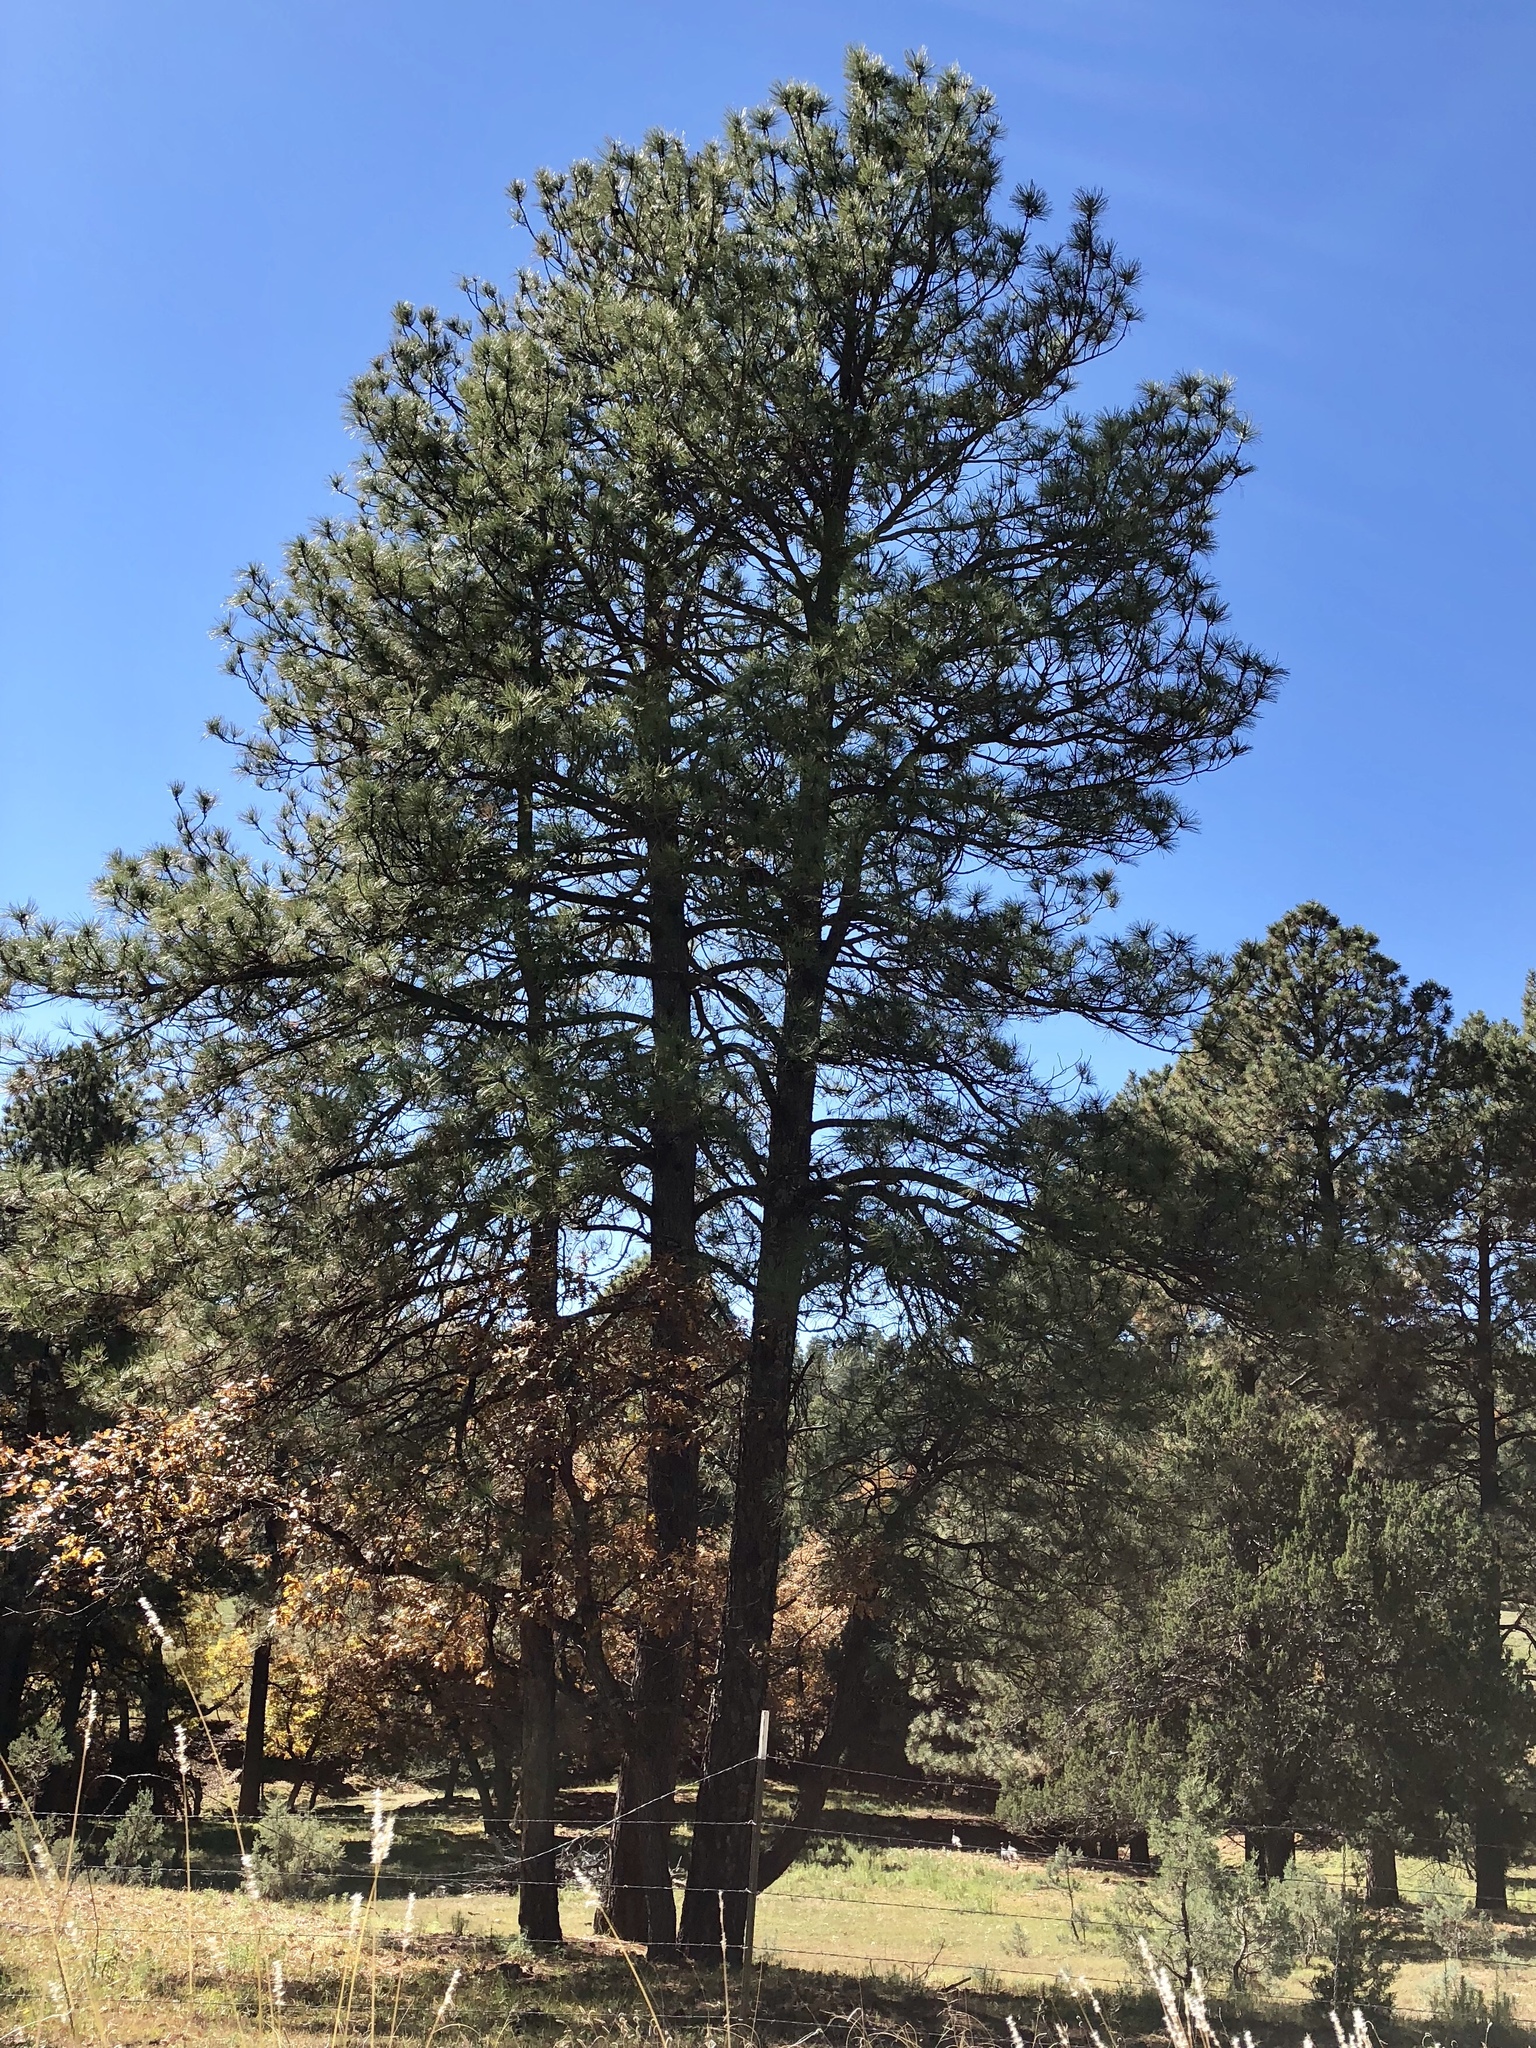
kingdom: Plantae
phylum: Tracheophyta
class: Pinopsida
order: Pinales
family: Pinaceae
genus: Pinus
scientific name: Pinus ponderosa
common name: Western yellow-pine
